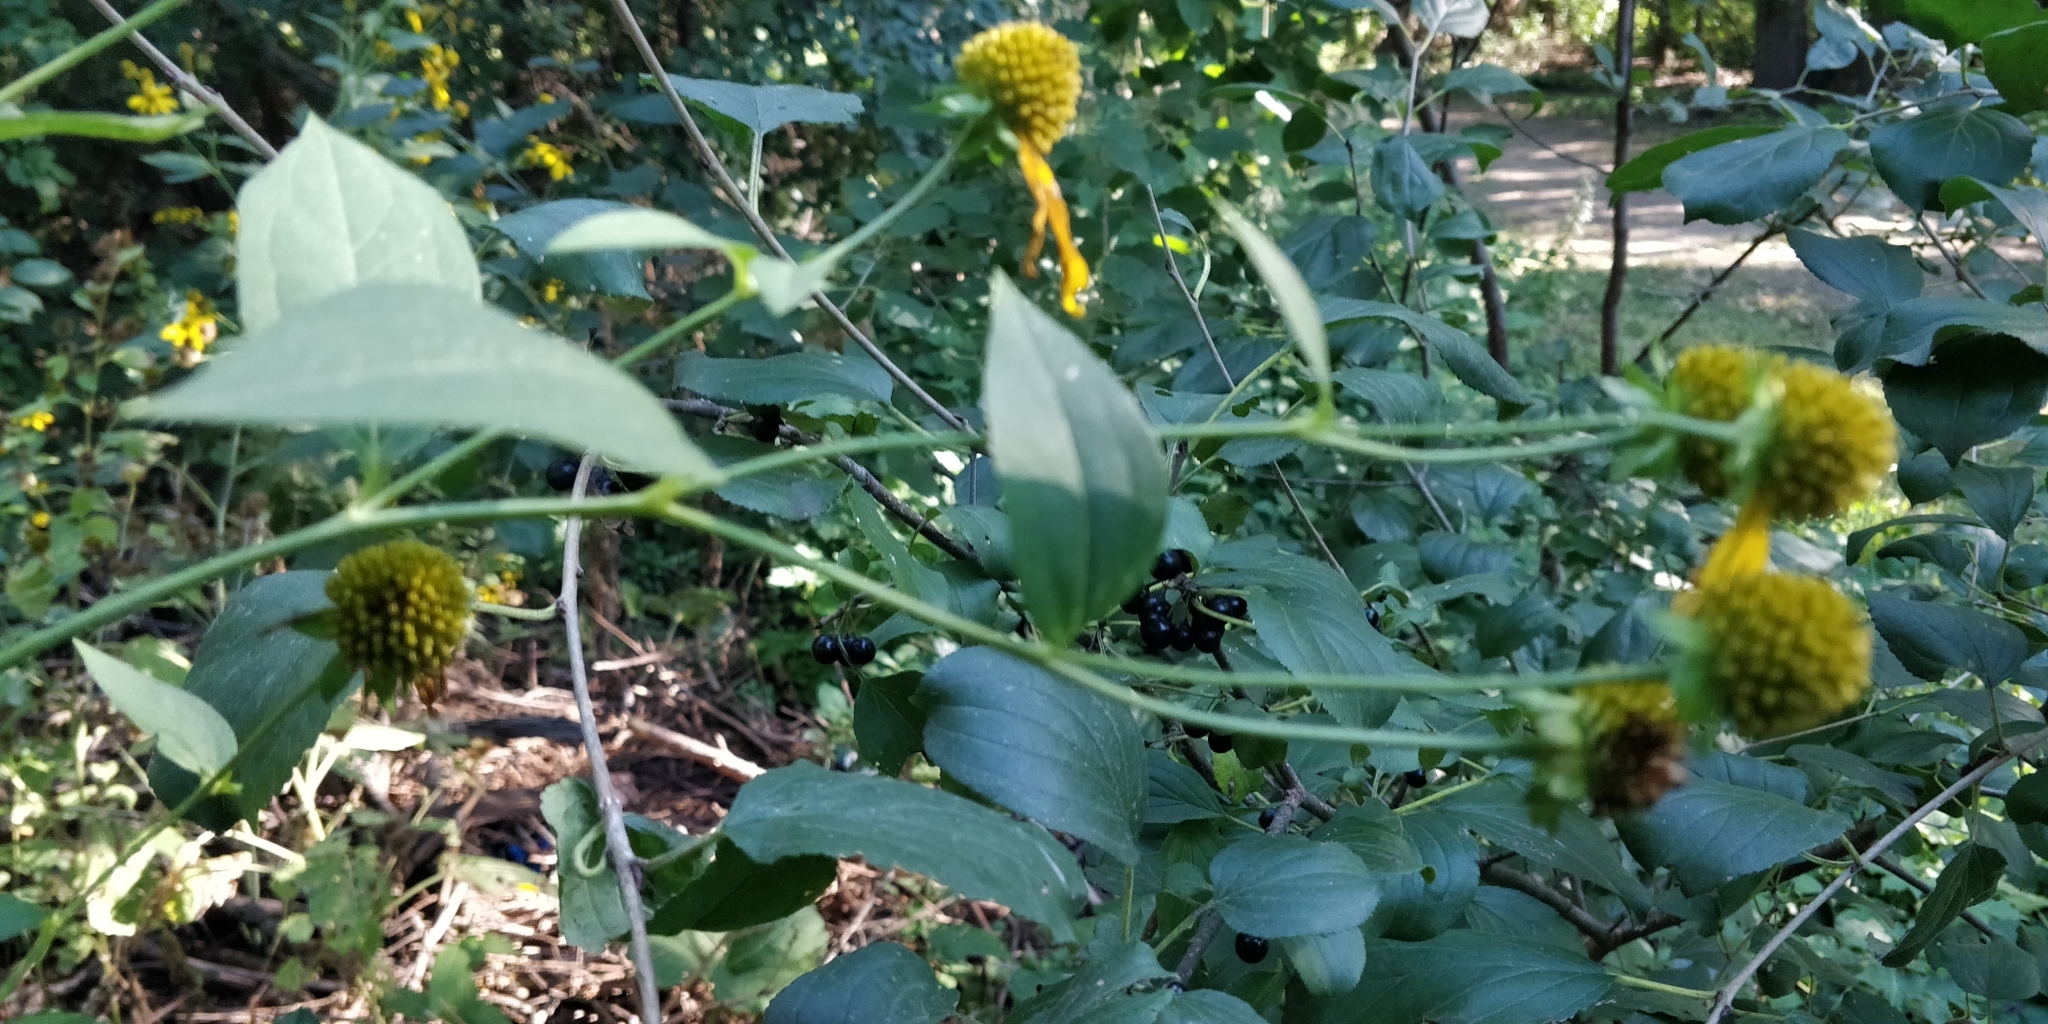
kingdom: Plantae
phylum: Tracheophyta
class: Magnoliopsida
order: Asterales
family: Asteraceae
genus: Rudbeckia
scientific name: Rudbeckia laciniata
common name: Coneflower
